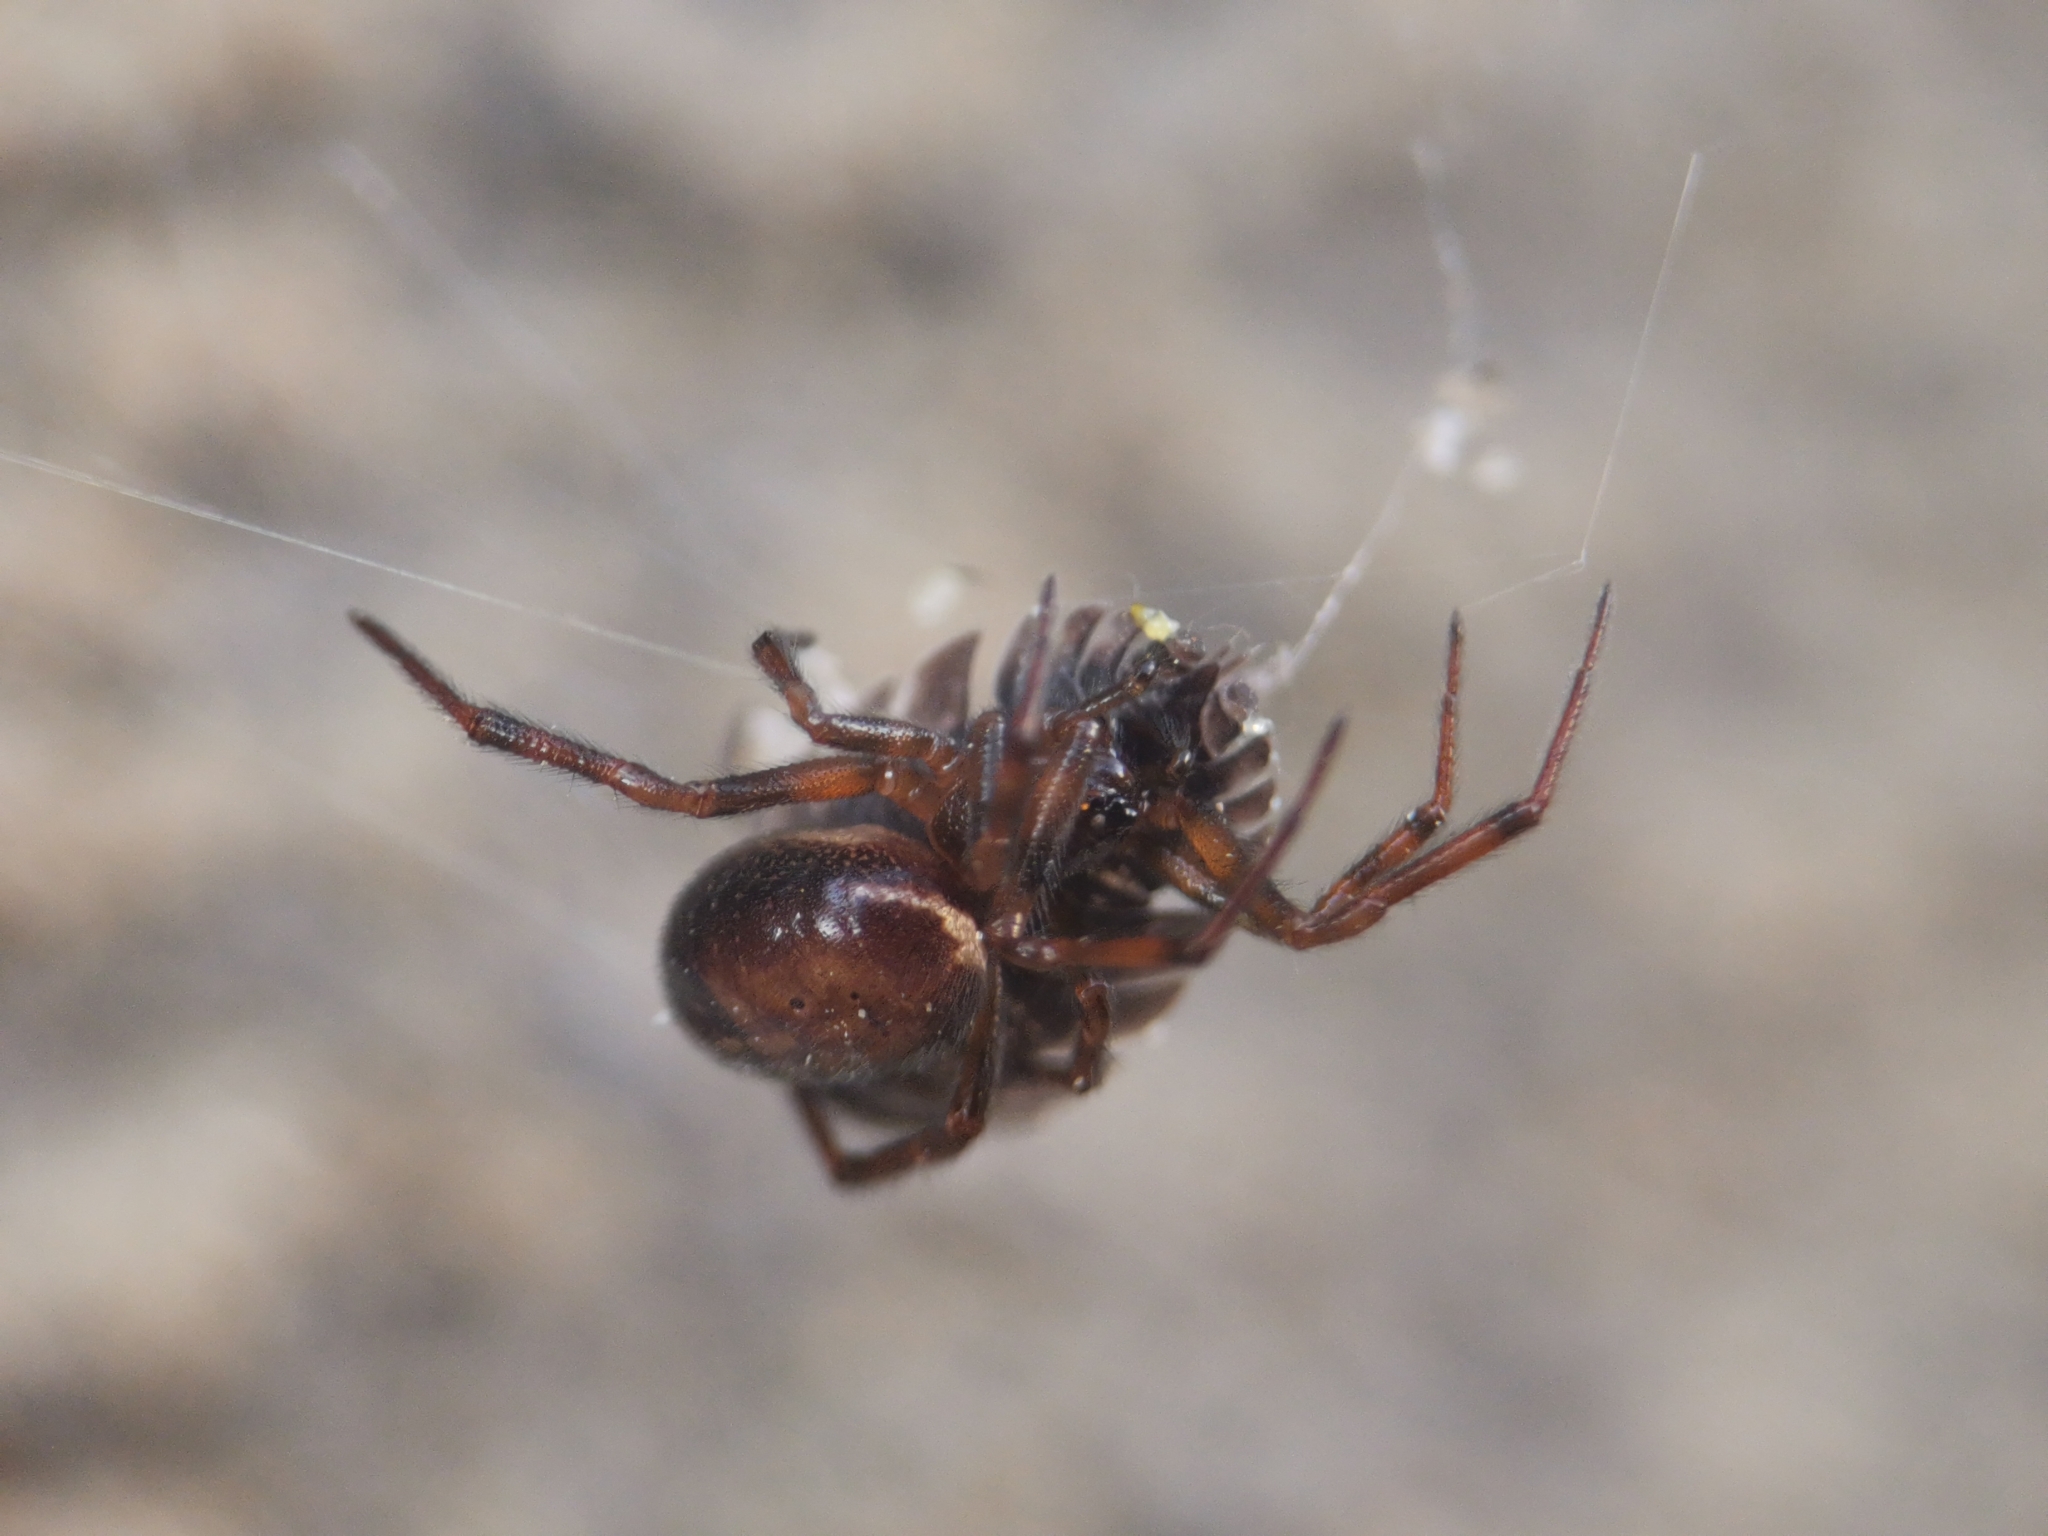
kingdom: Animalia
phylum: Arthropoda
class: Arachnida
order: Araneae
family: Theridiidae
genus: Steatoda
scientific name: Steatoda bipunctata
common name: False widow
